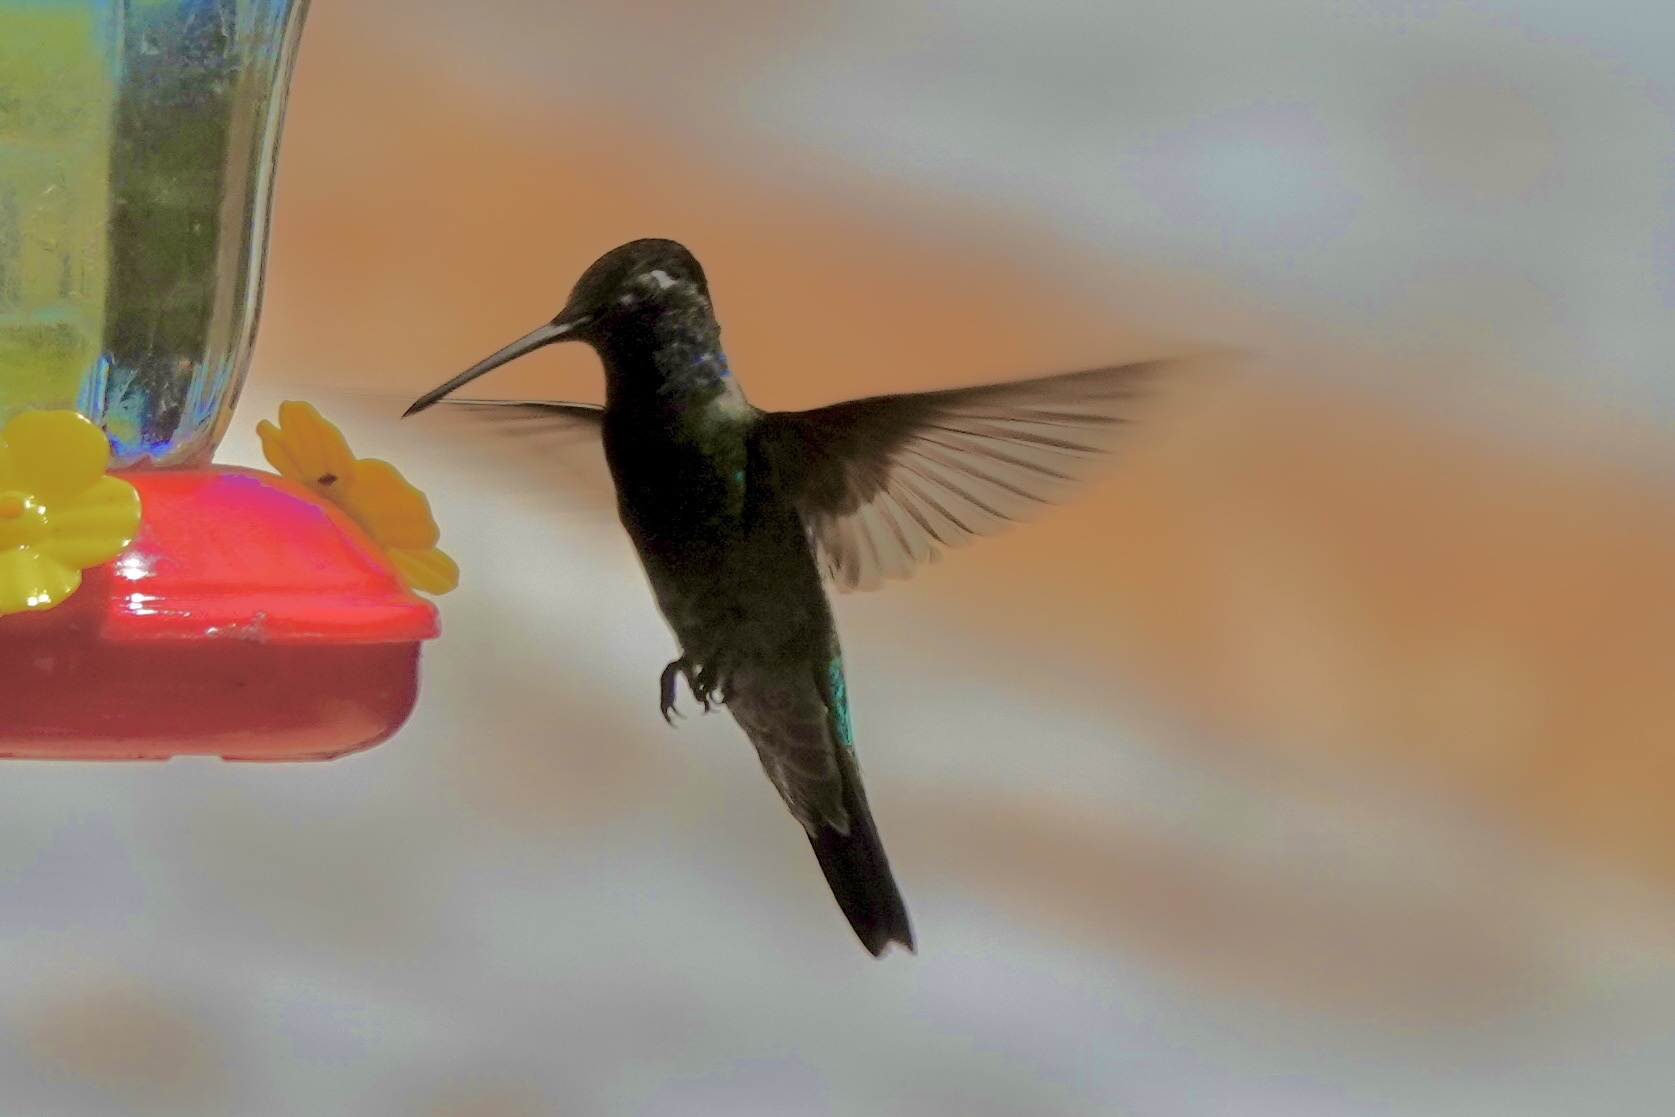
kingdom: Animalia
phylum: Chordata
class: Aves
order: Apodiformes
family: Trochilidae
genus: Eugenes
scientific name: Eugenes fulgens
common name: Magnificent hummingbird
